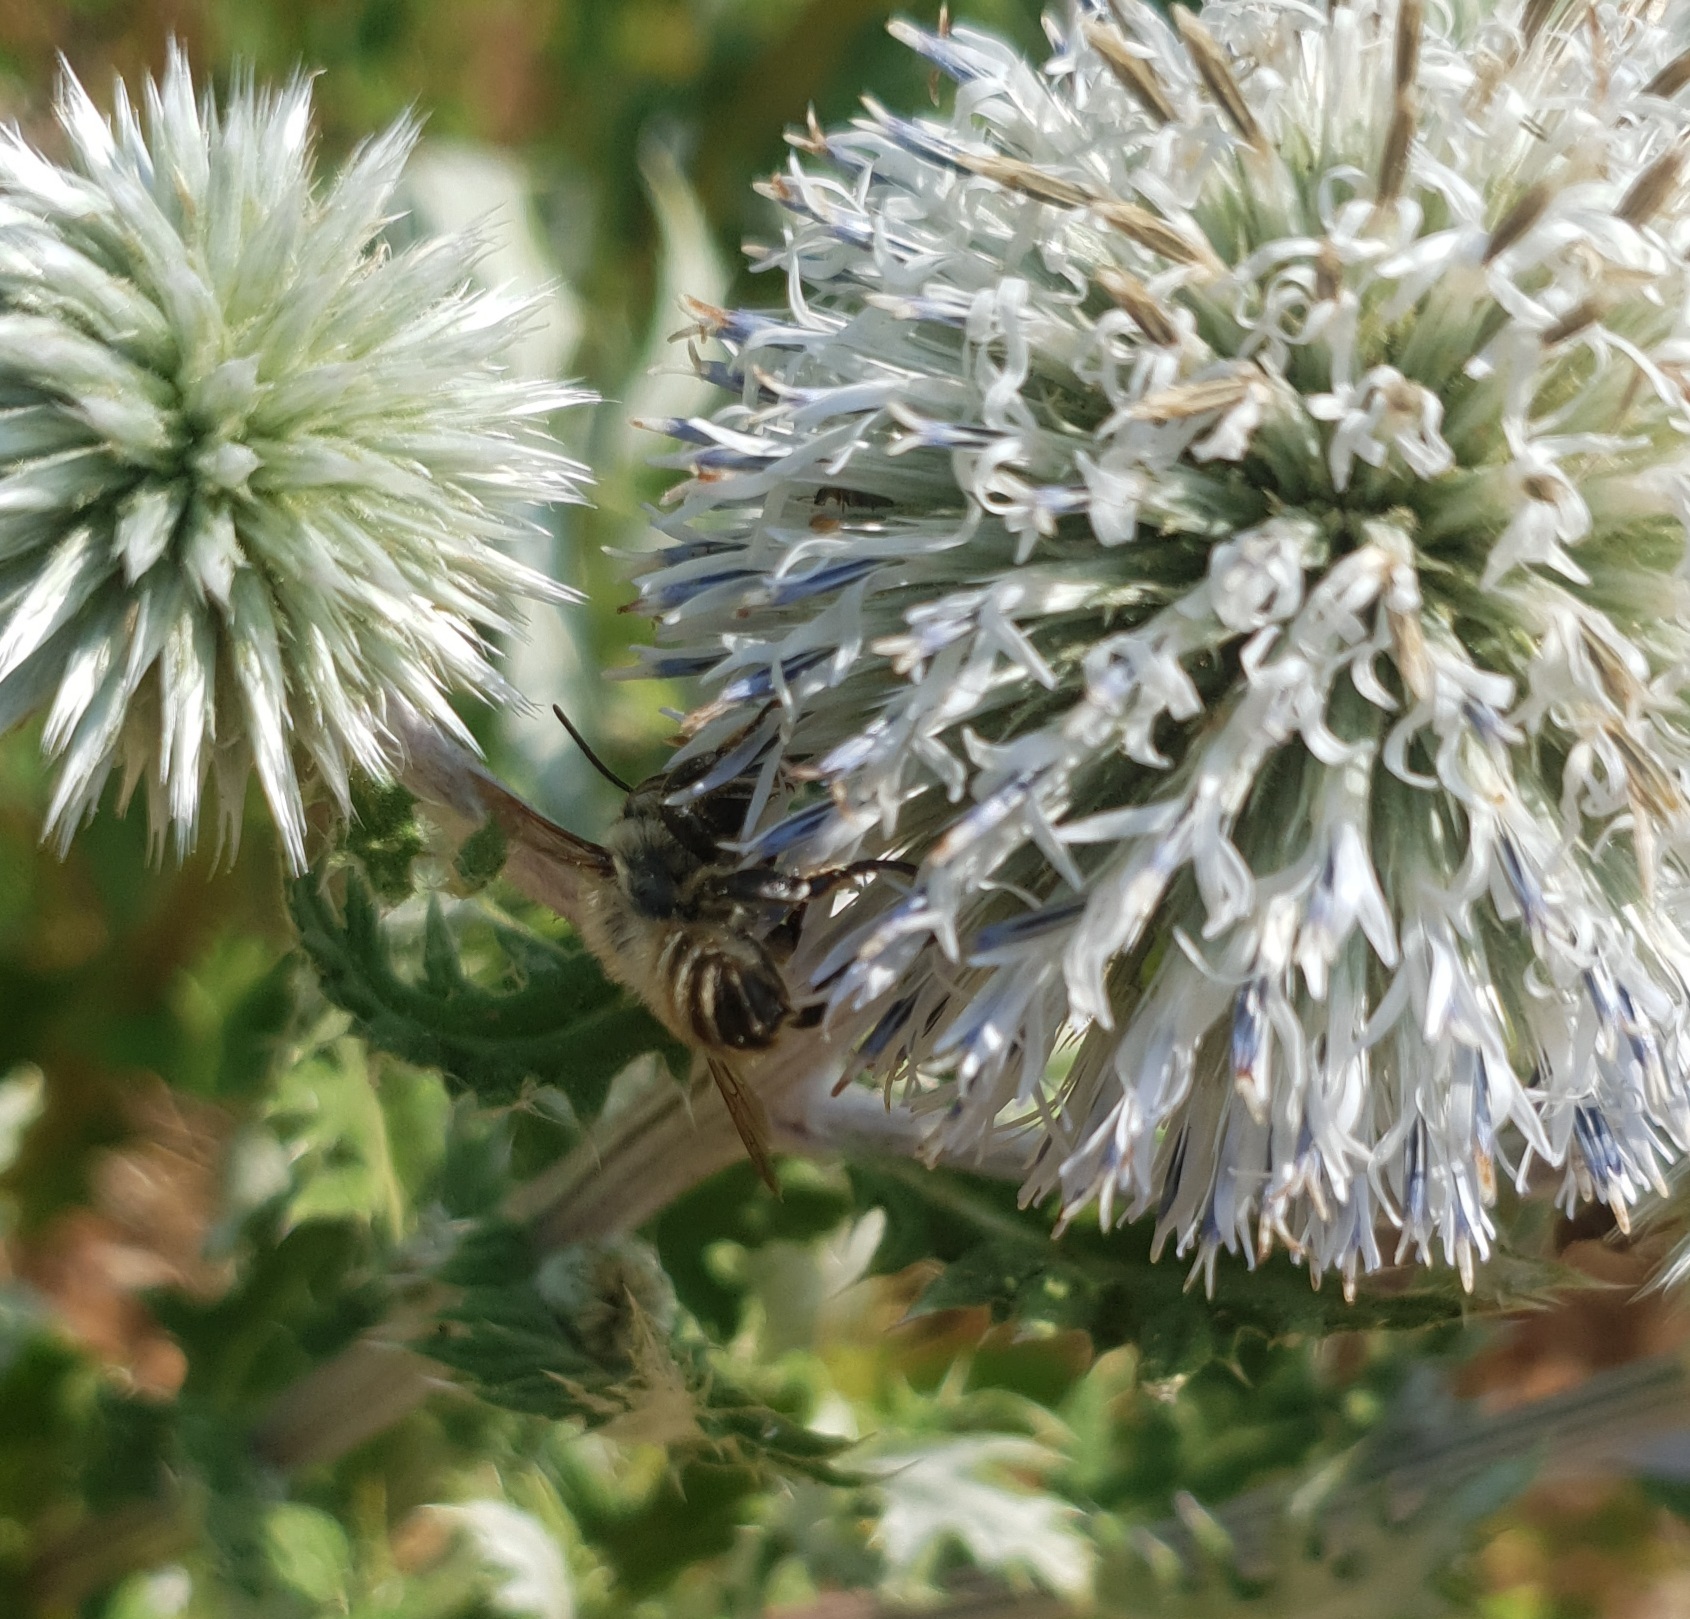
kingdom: Animalia
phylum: Arthropoda
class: Insecta
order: Hymenoptera
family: Megachilidae
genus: Megachile
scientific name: Megachile lagopoda
